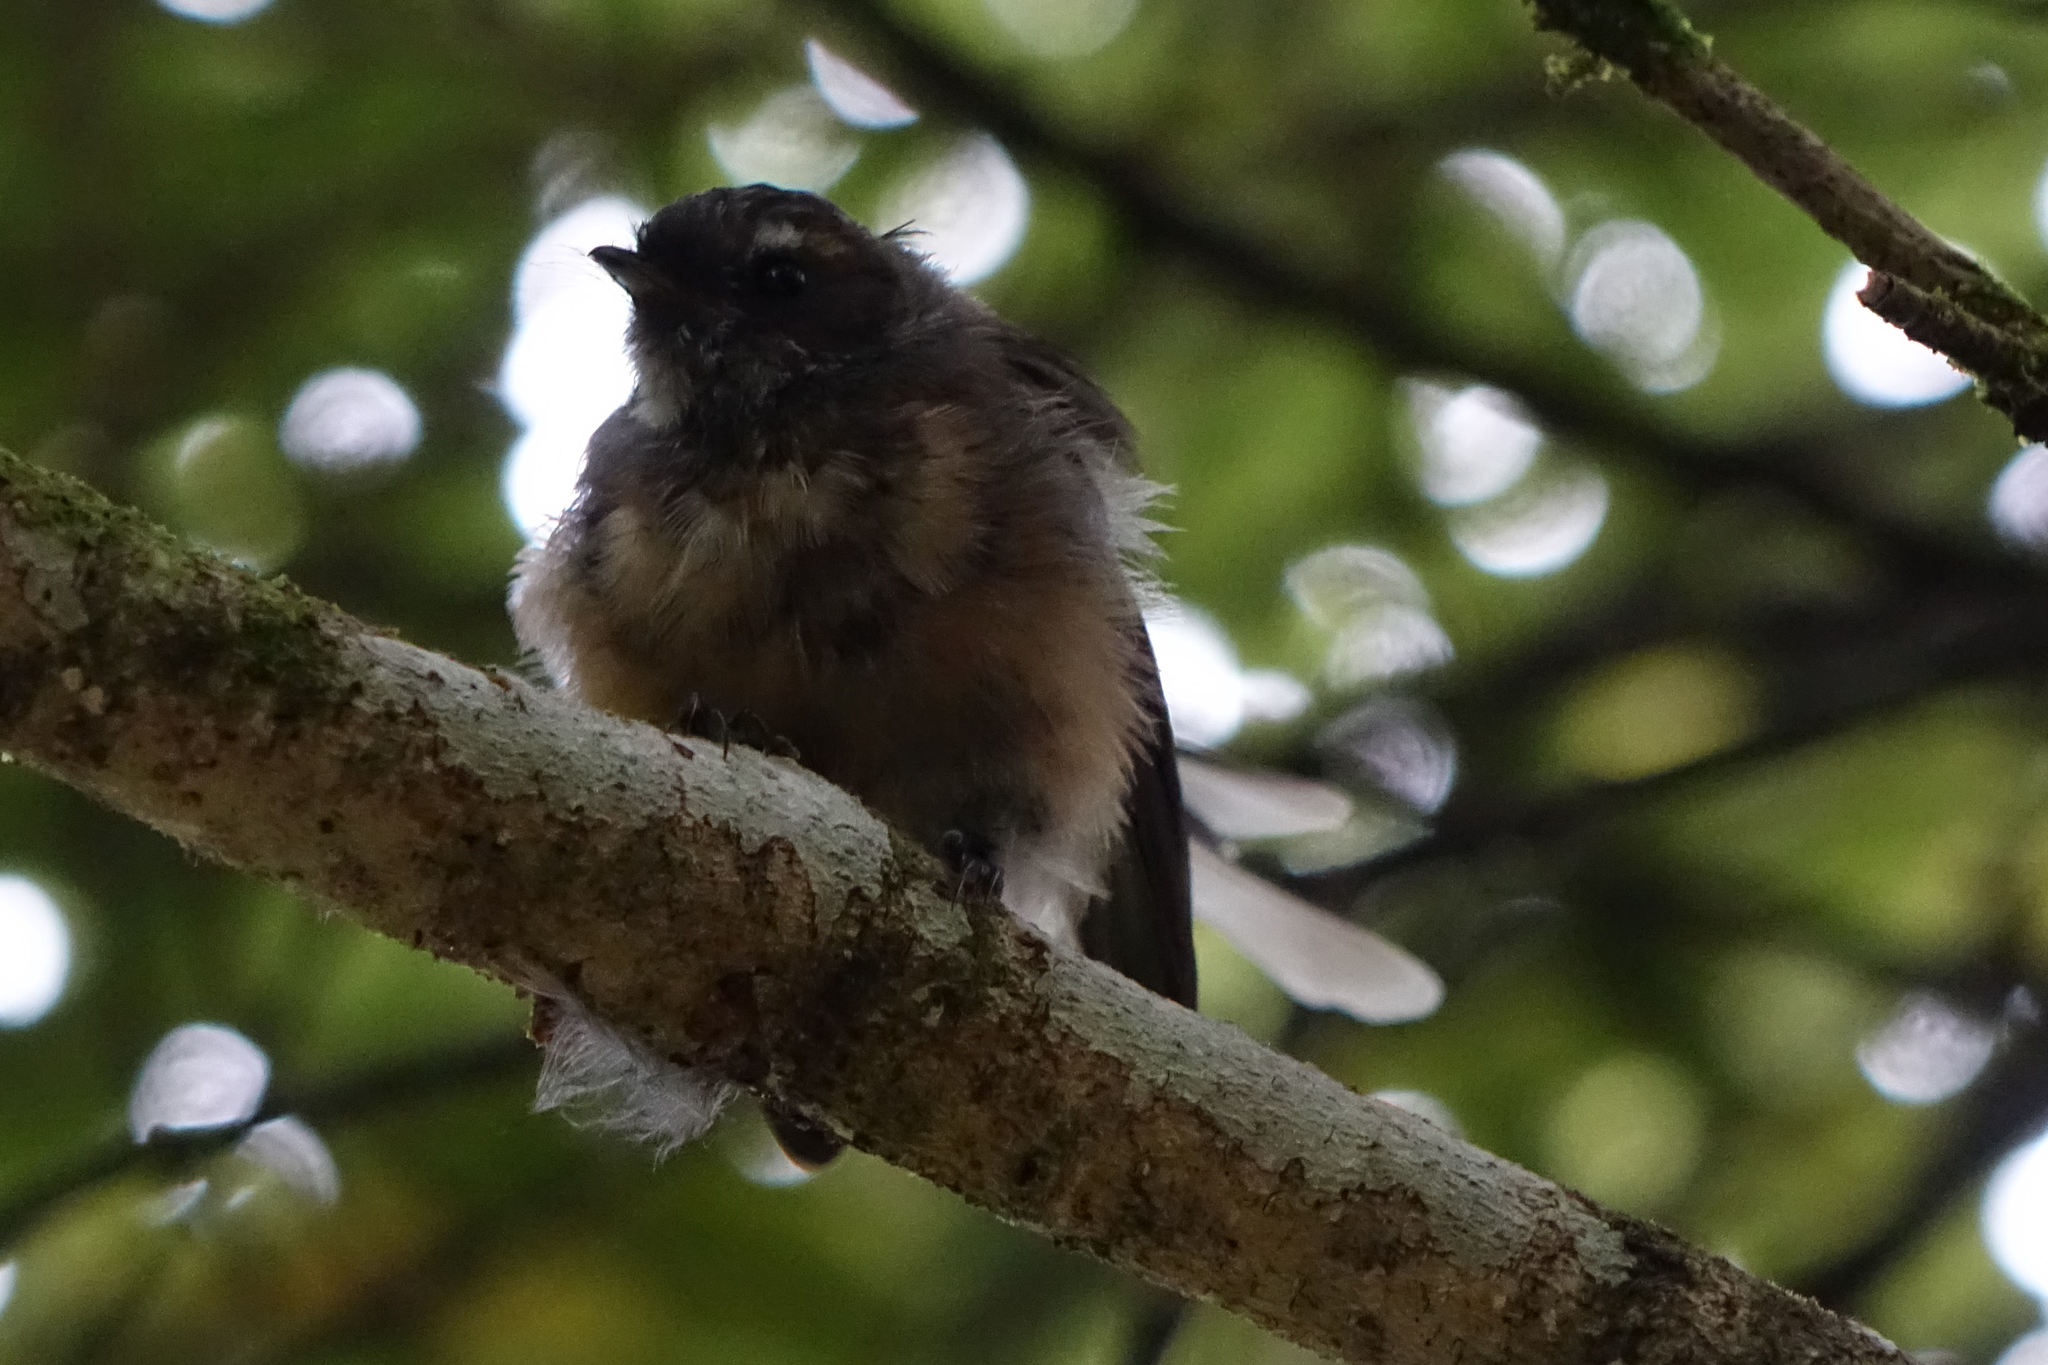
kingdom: Animalia
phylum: Chordata
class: Aves
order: Passeriformes
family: Rhipiduridae
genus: Rhipidura
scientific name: Rhipidura fuliginosa
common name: New zealand fantail
